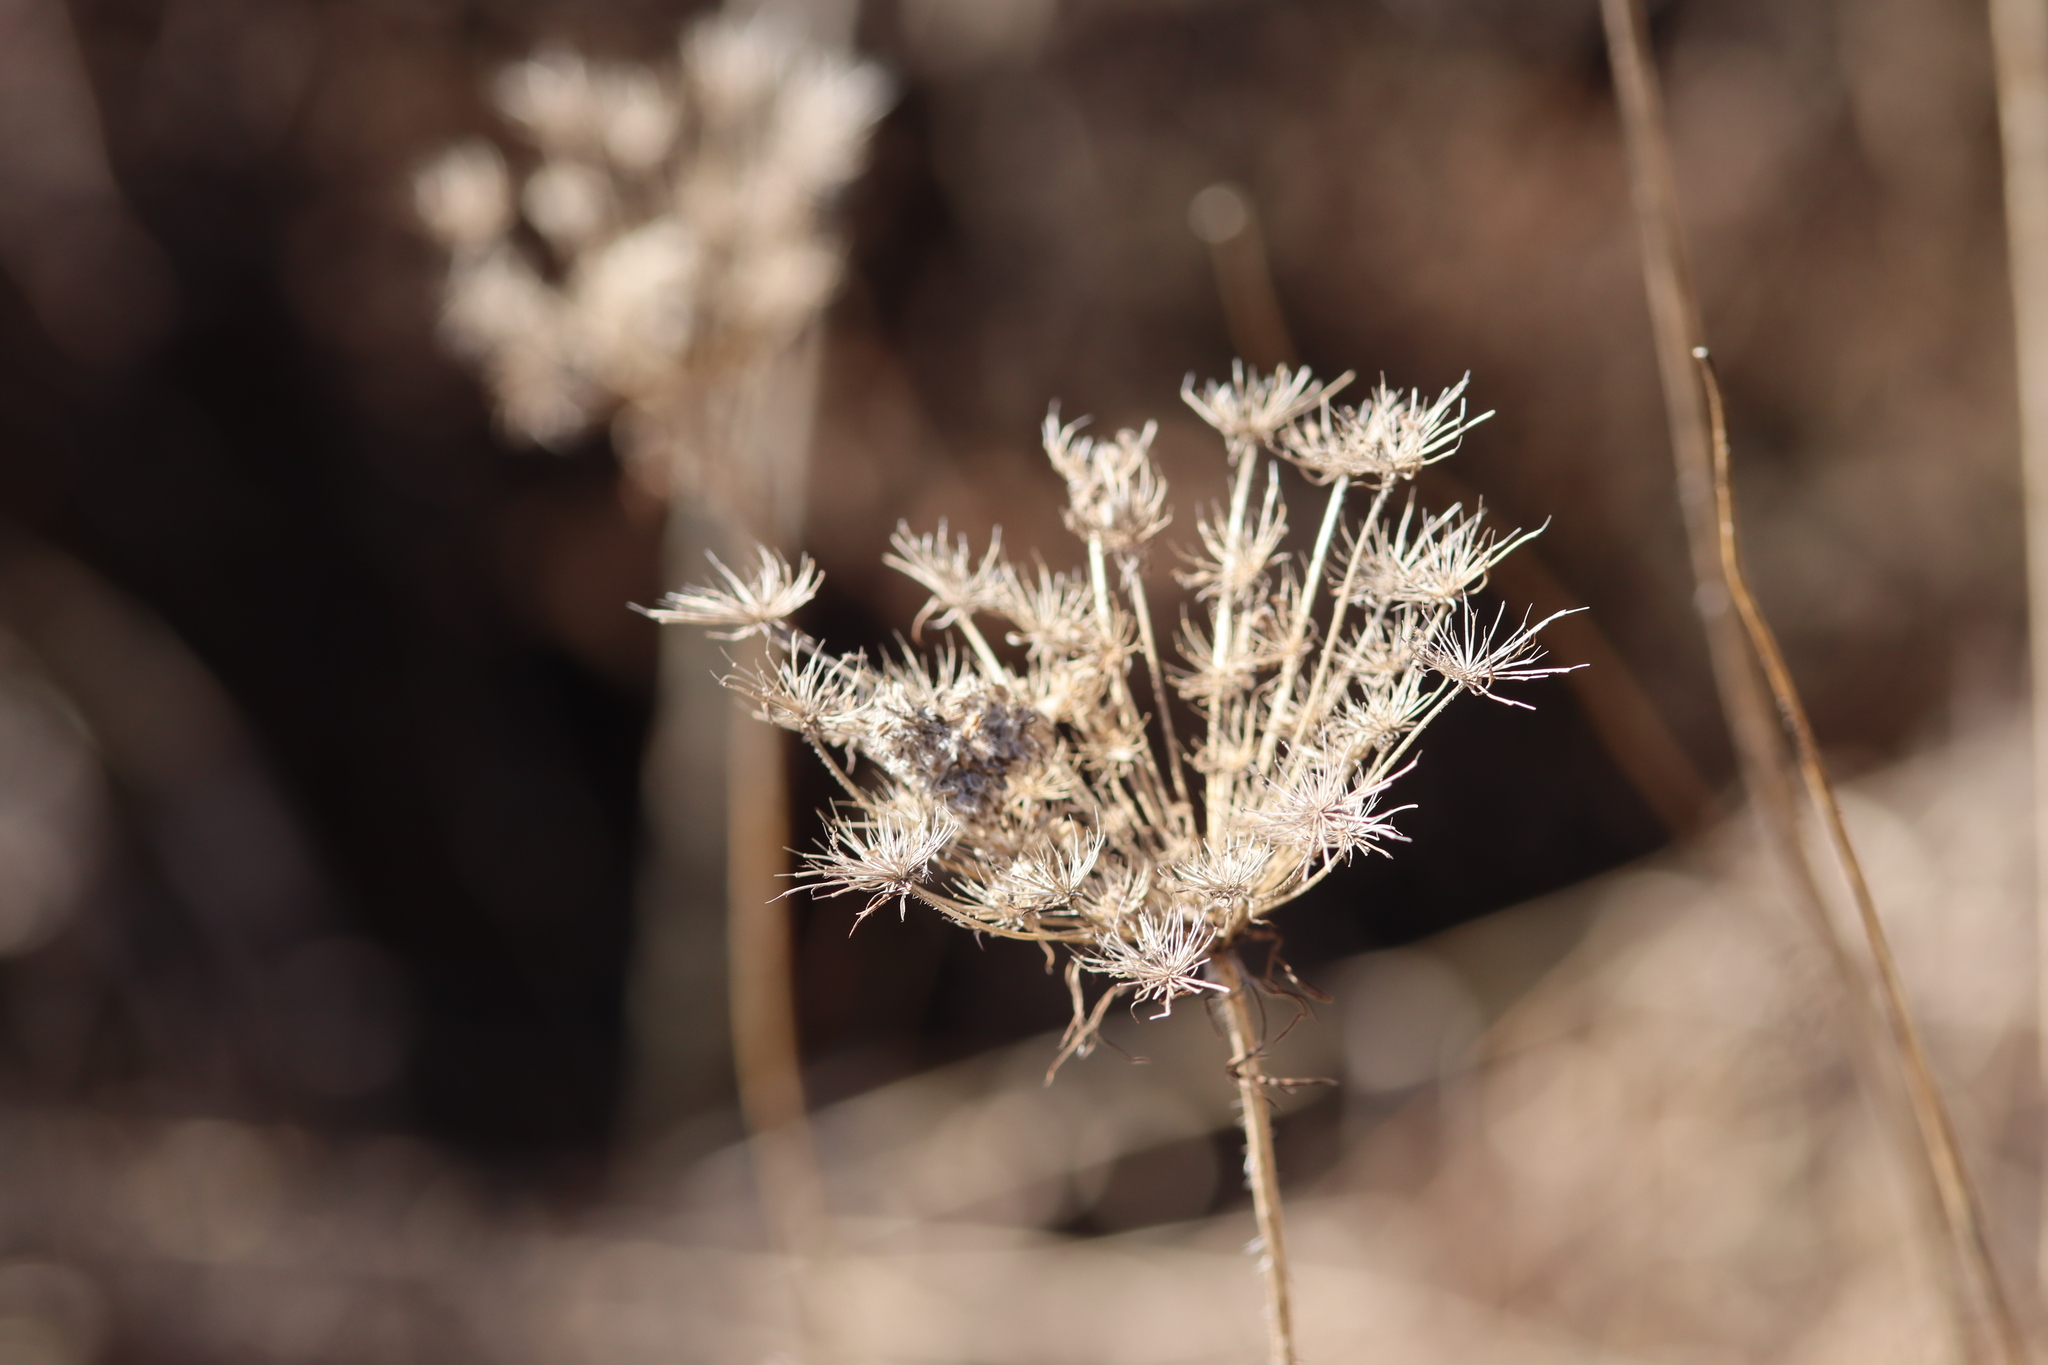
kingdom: Plantae
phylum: Tracheophyta
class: Magnoliopsida
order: Apiales
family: Apiaceae
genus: Daucus
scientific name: Daucus carota
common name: Wild carrot
